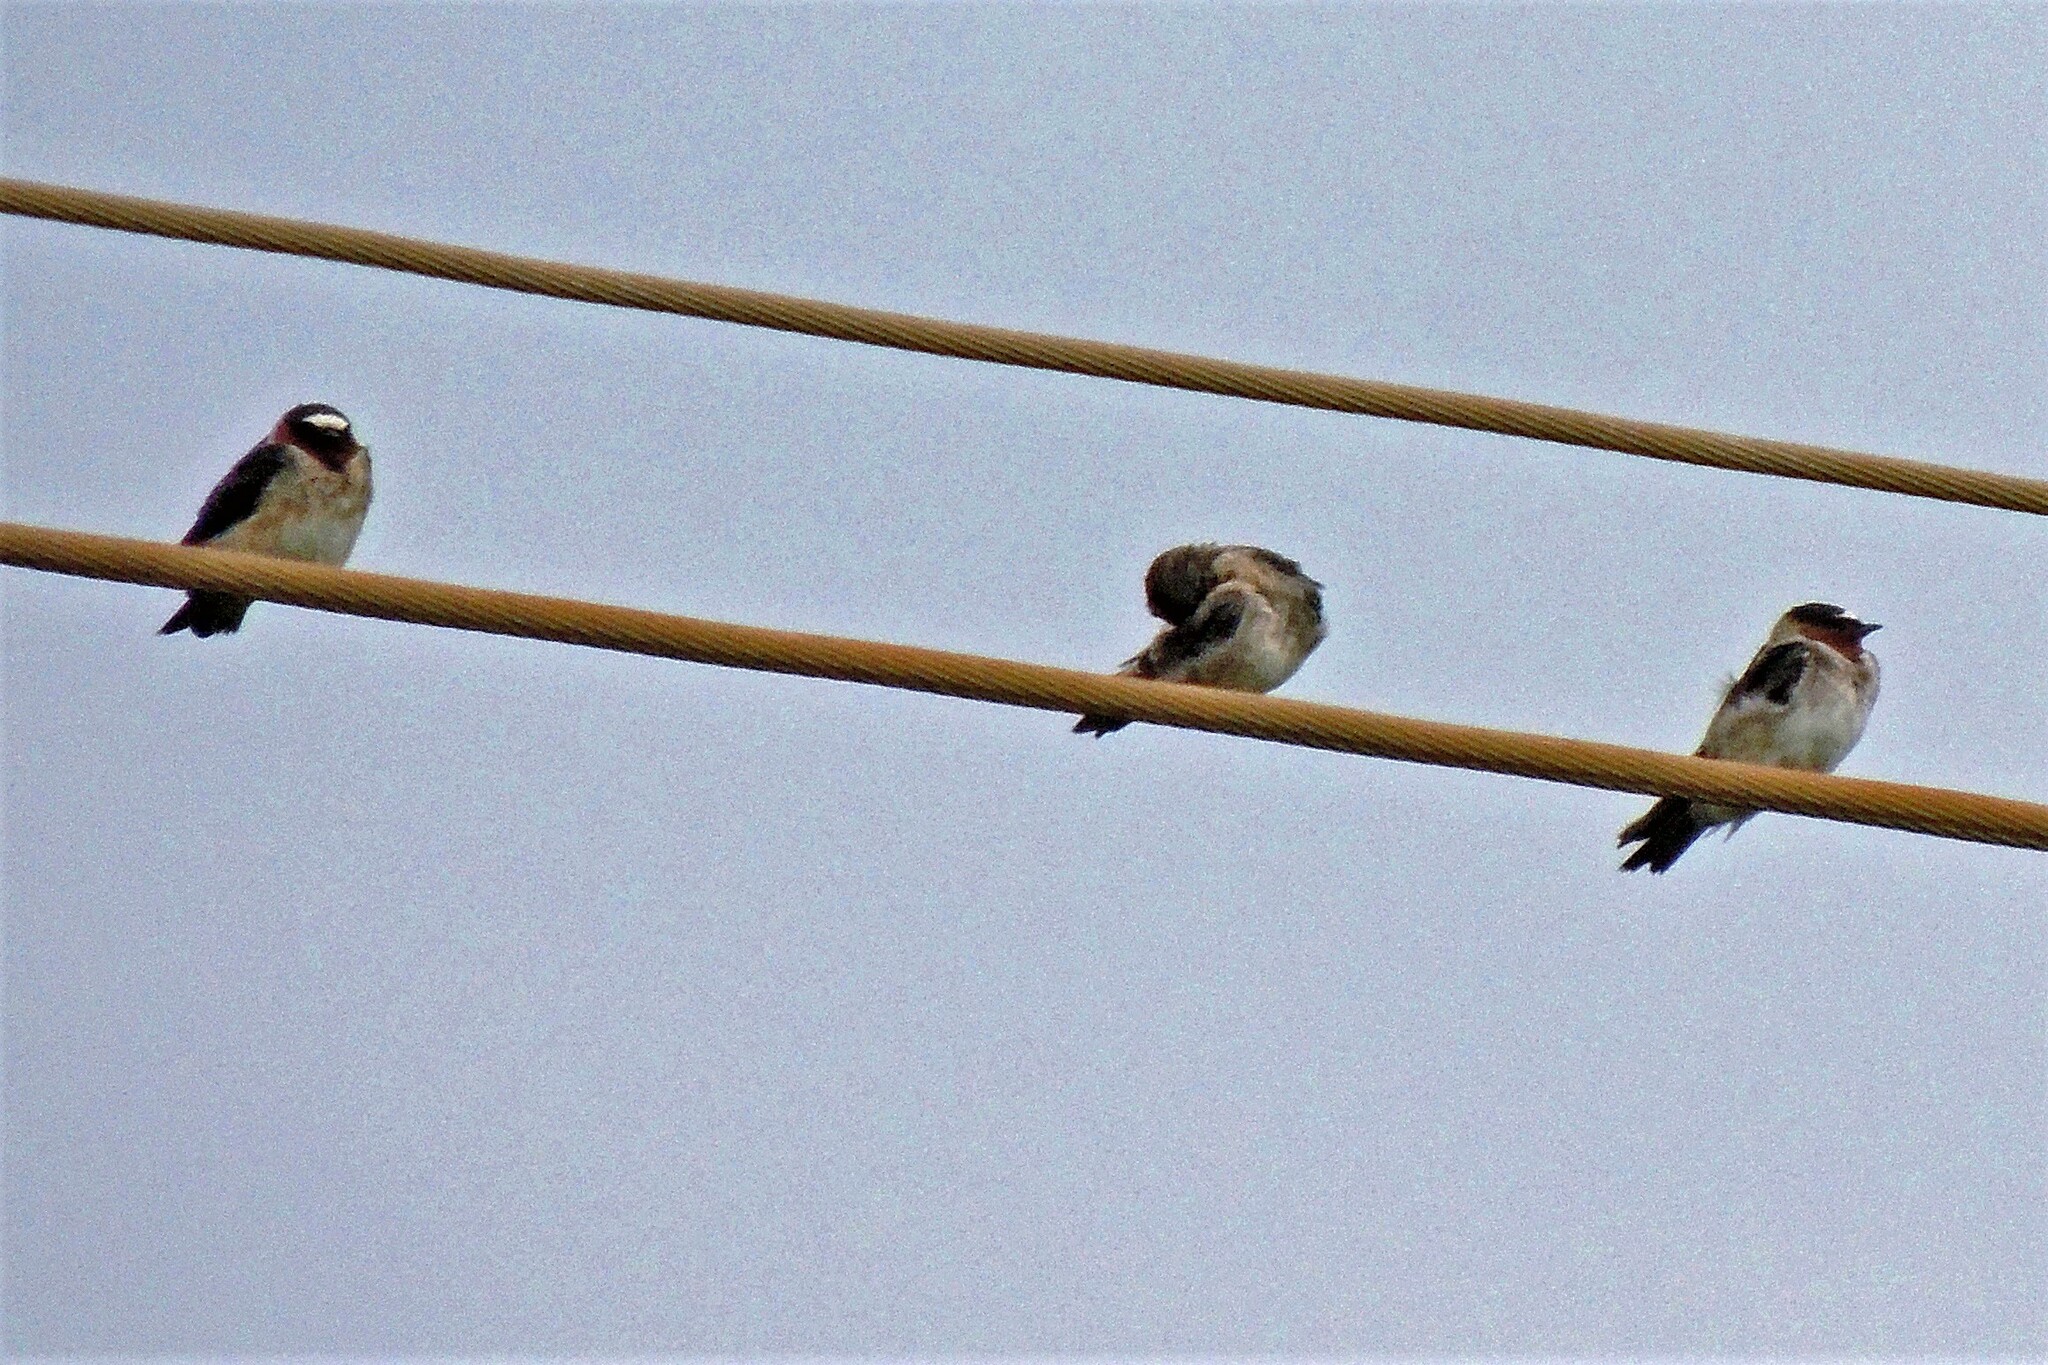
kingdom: Animalia
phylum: Chordata
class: Aves
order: Passeriformes
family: Hirundinidae
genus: Petrochelidon
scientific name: Petrochelidon pyrrhonota
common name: American cliff swallow
